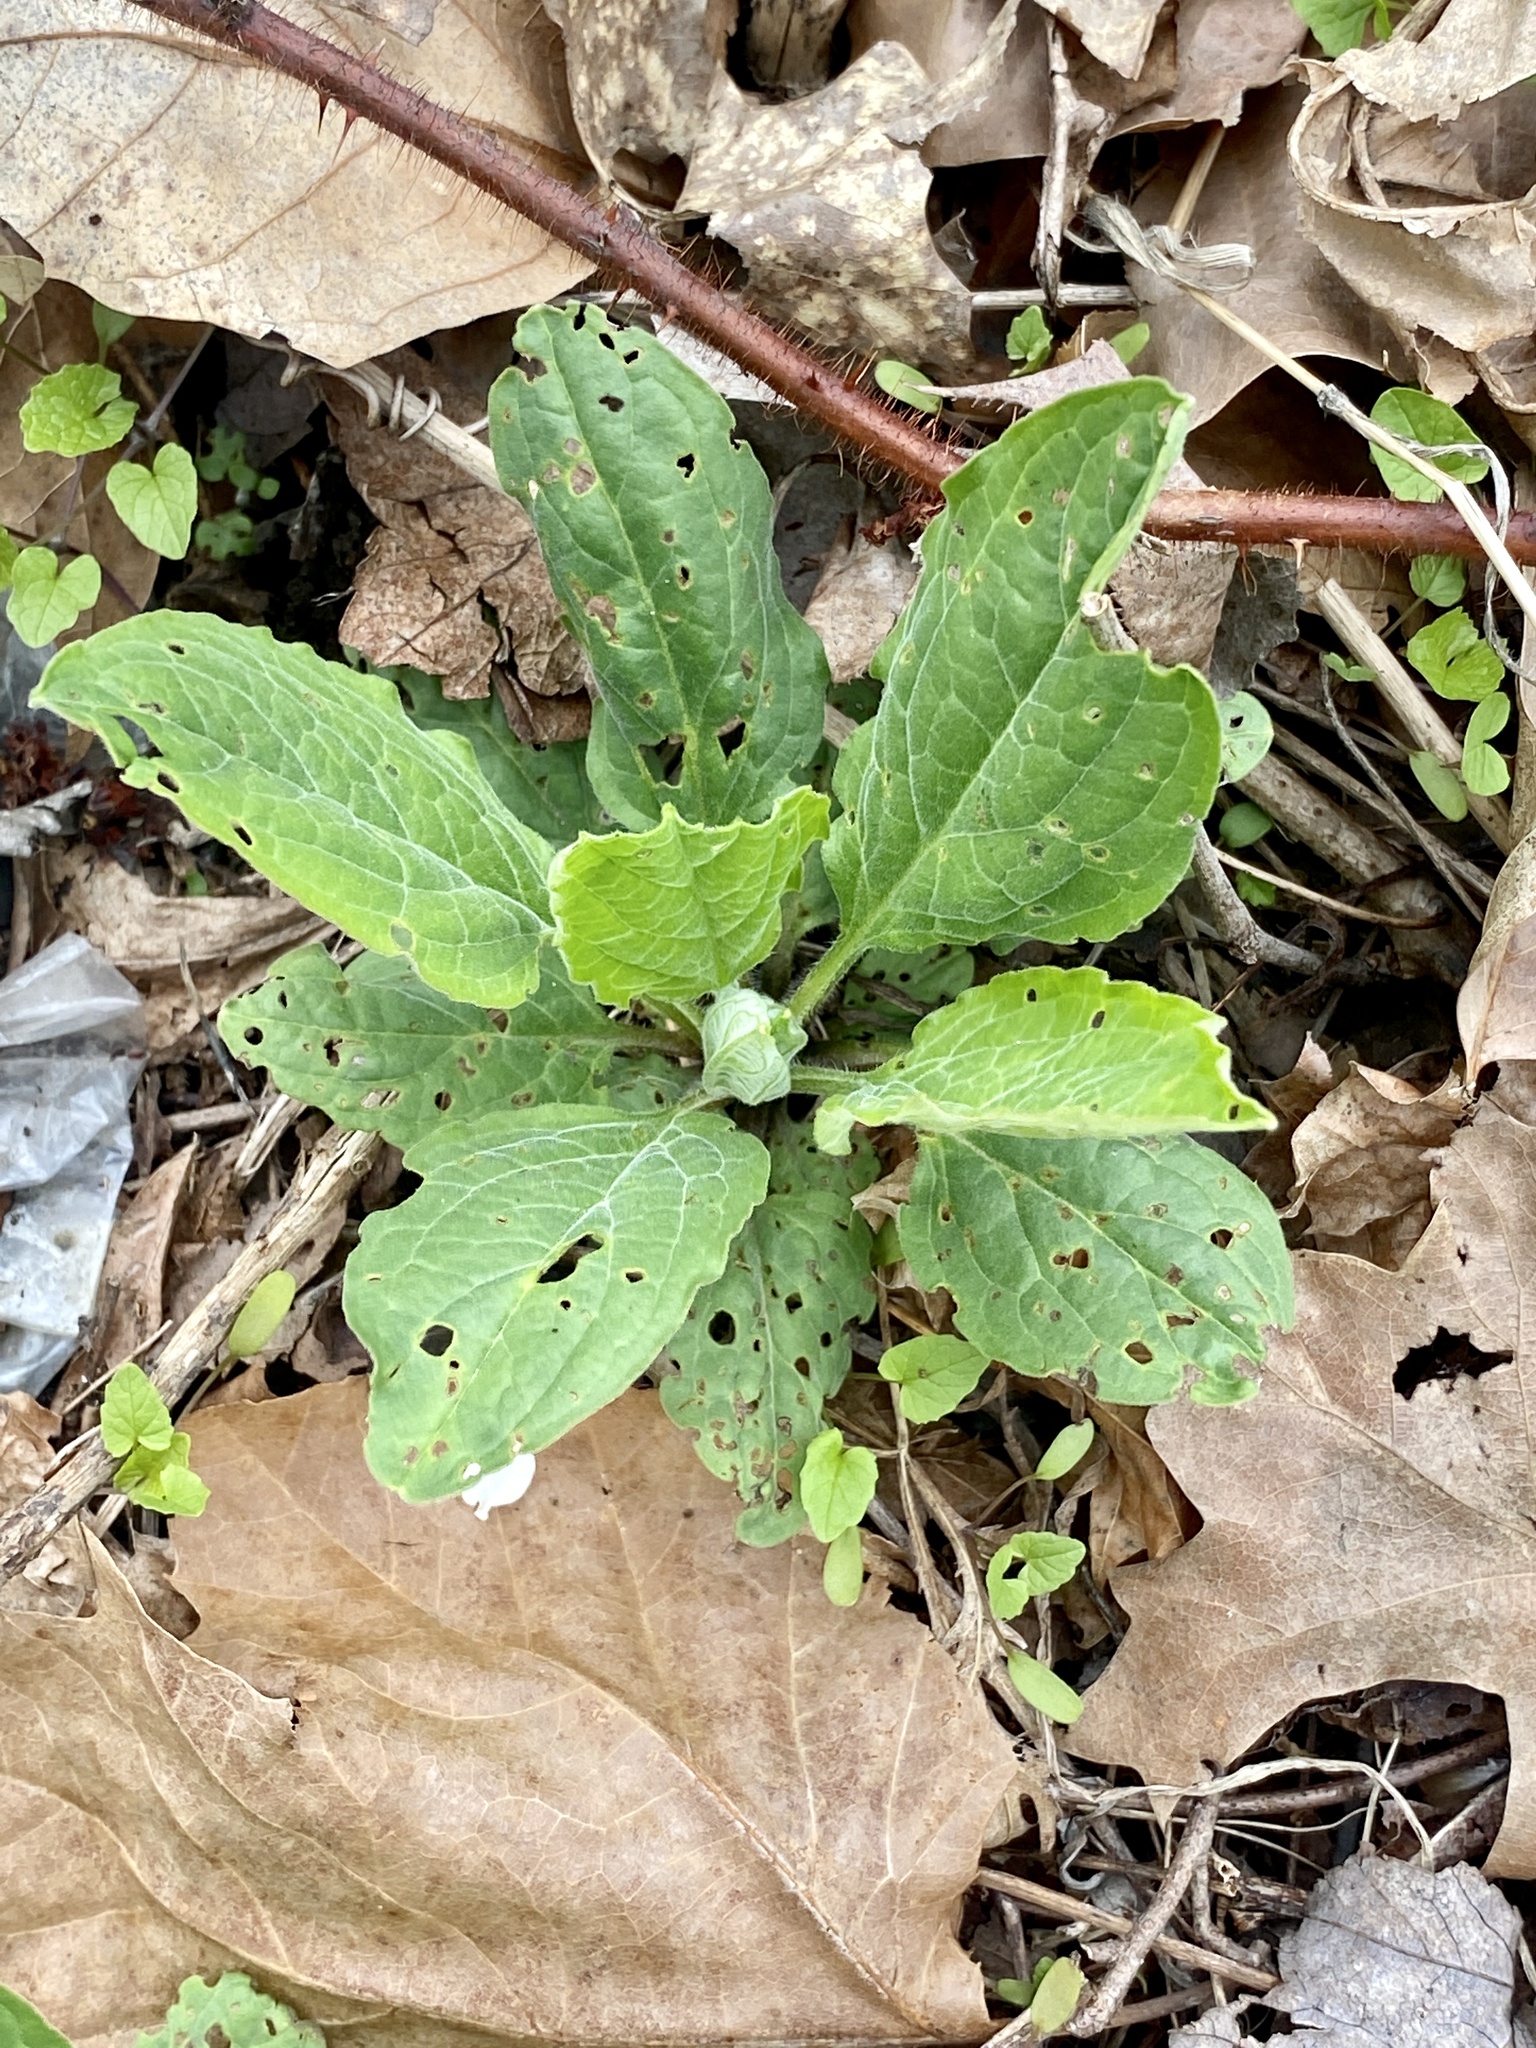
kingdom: Plantae
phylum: Tracheophyta
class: Magnoliopsida
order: Boraginales
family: Boraginaceae
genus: Hackelia
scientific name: Hackelia virginiana
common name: Beggar's-lice
